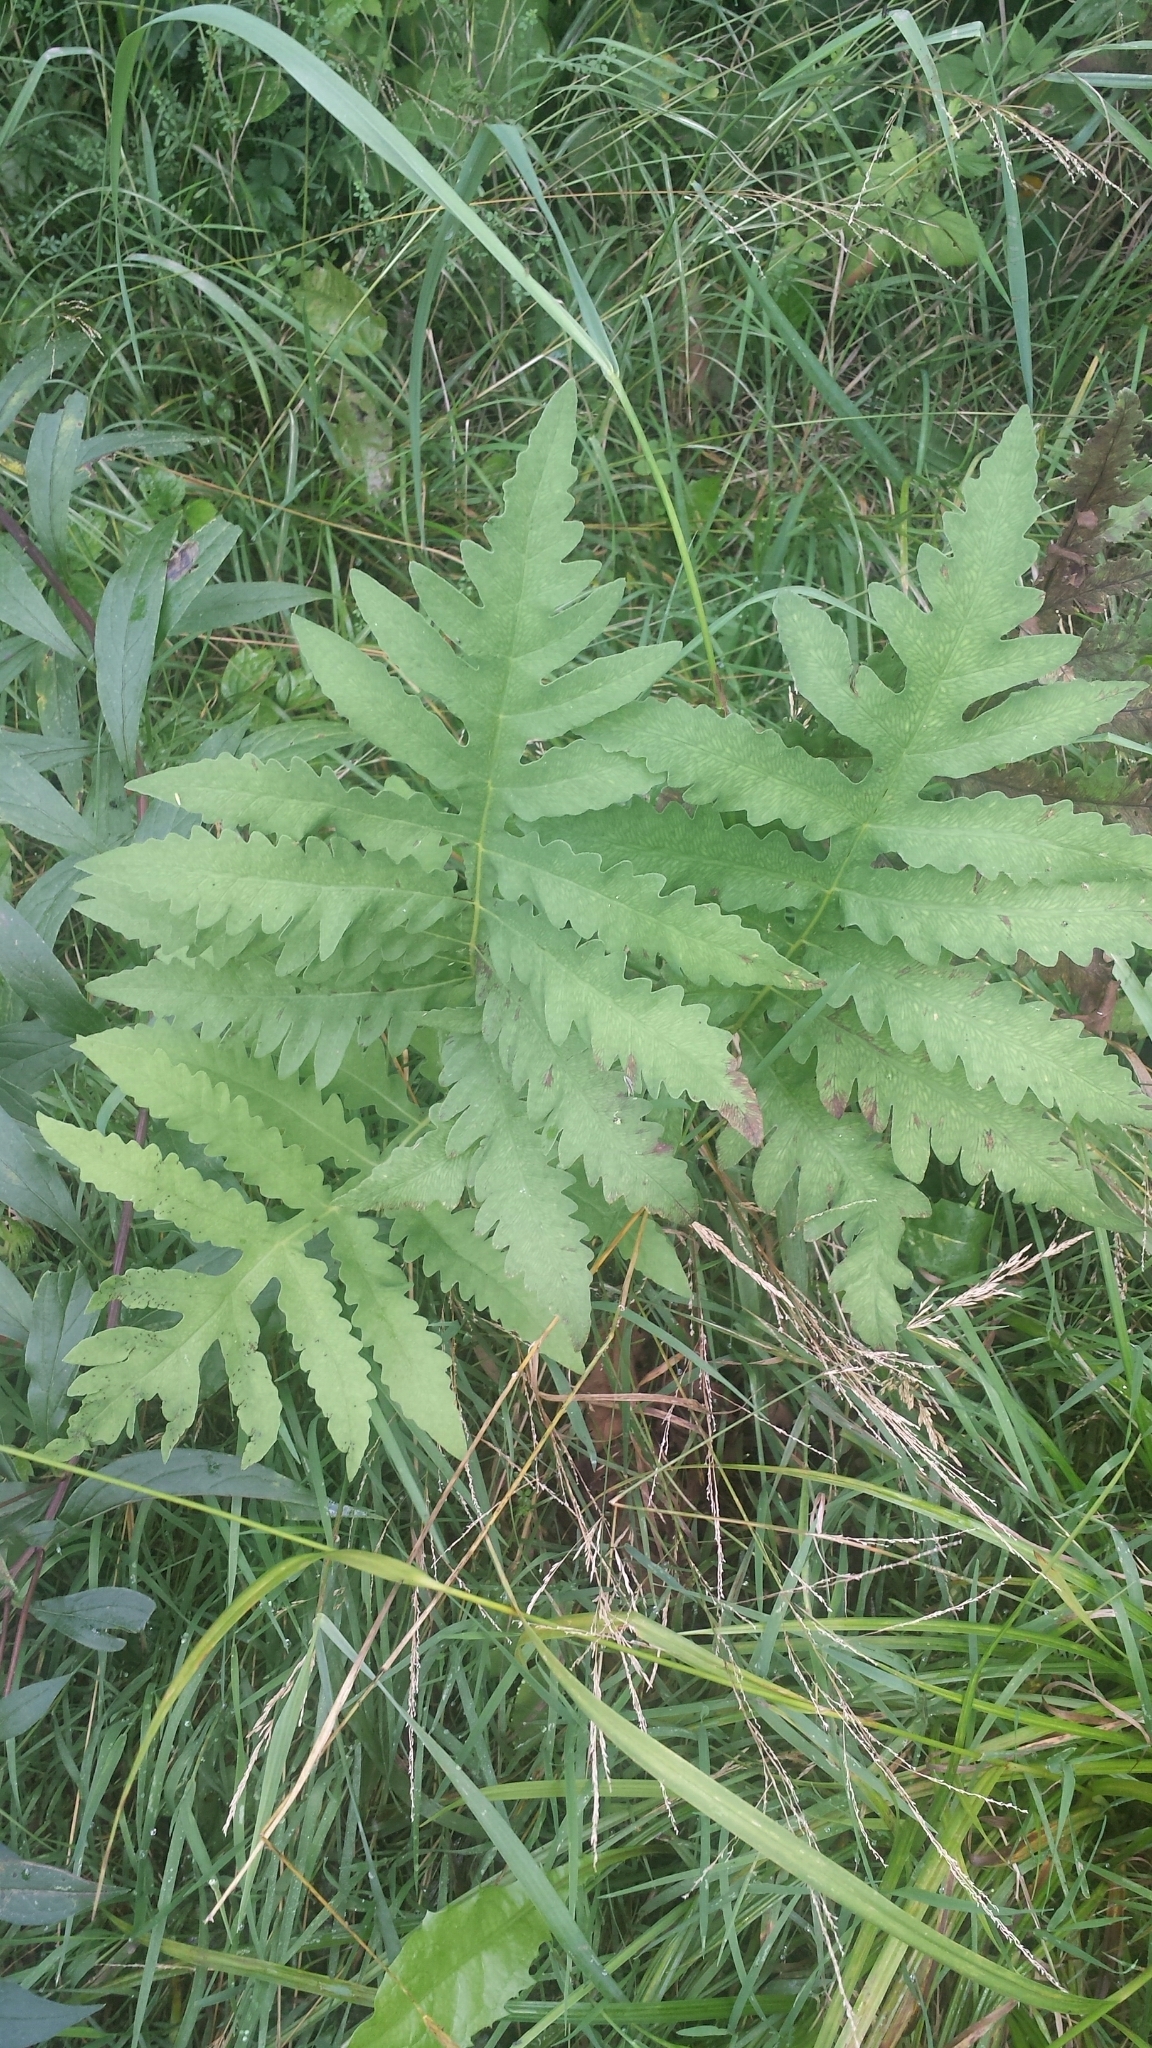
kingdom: Plantae
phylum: Tracheophyta
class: Polypodiopsida
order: Polypodiales
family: Onocleaceae
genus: Onoclea
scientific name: Onoclea sensibilis
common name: Sensitive fern
